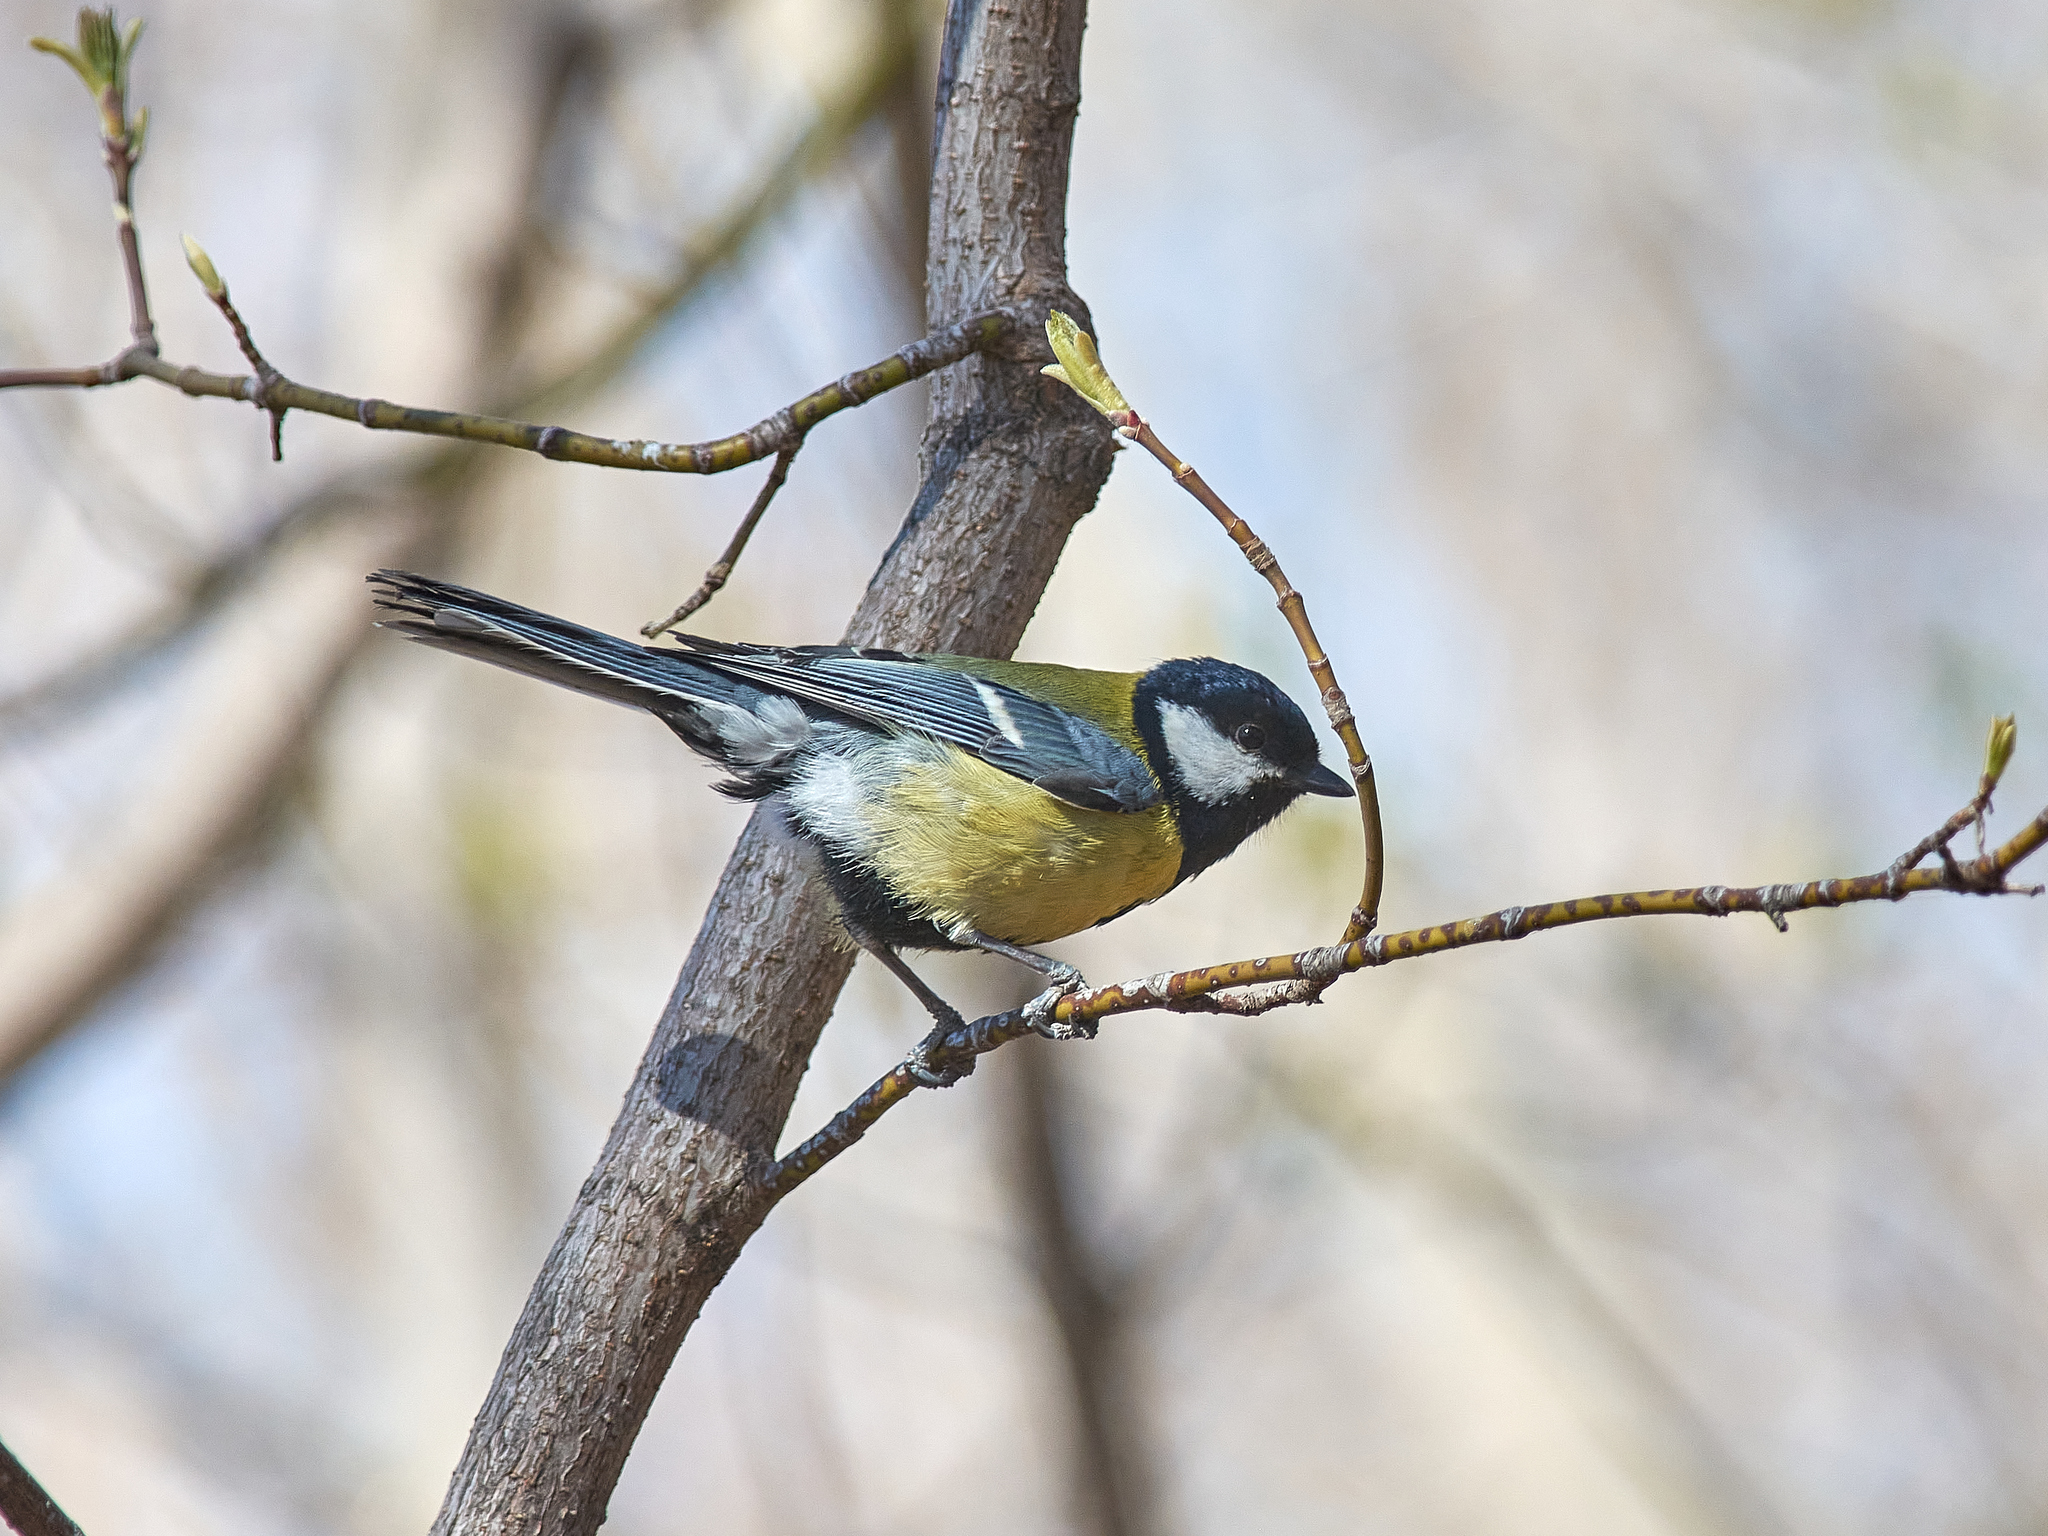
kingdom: Animalia
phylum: Chordata
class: Aves
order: Passeriformes
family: Paridae
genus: Parus
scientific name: Parus major
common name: Great tit
